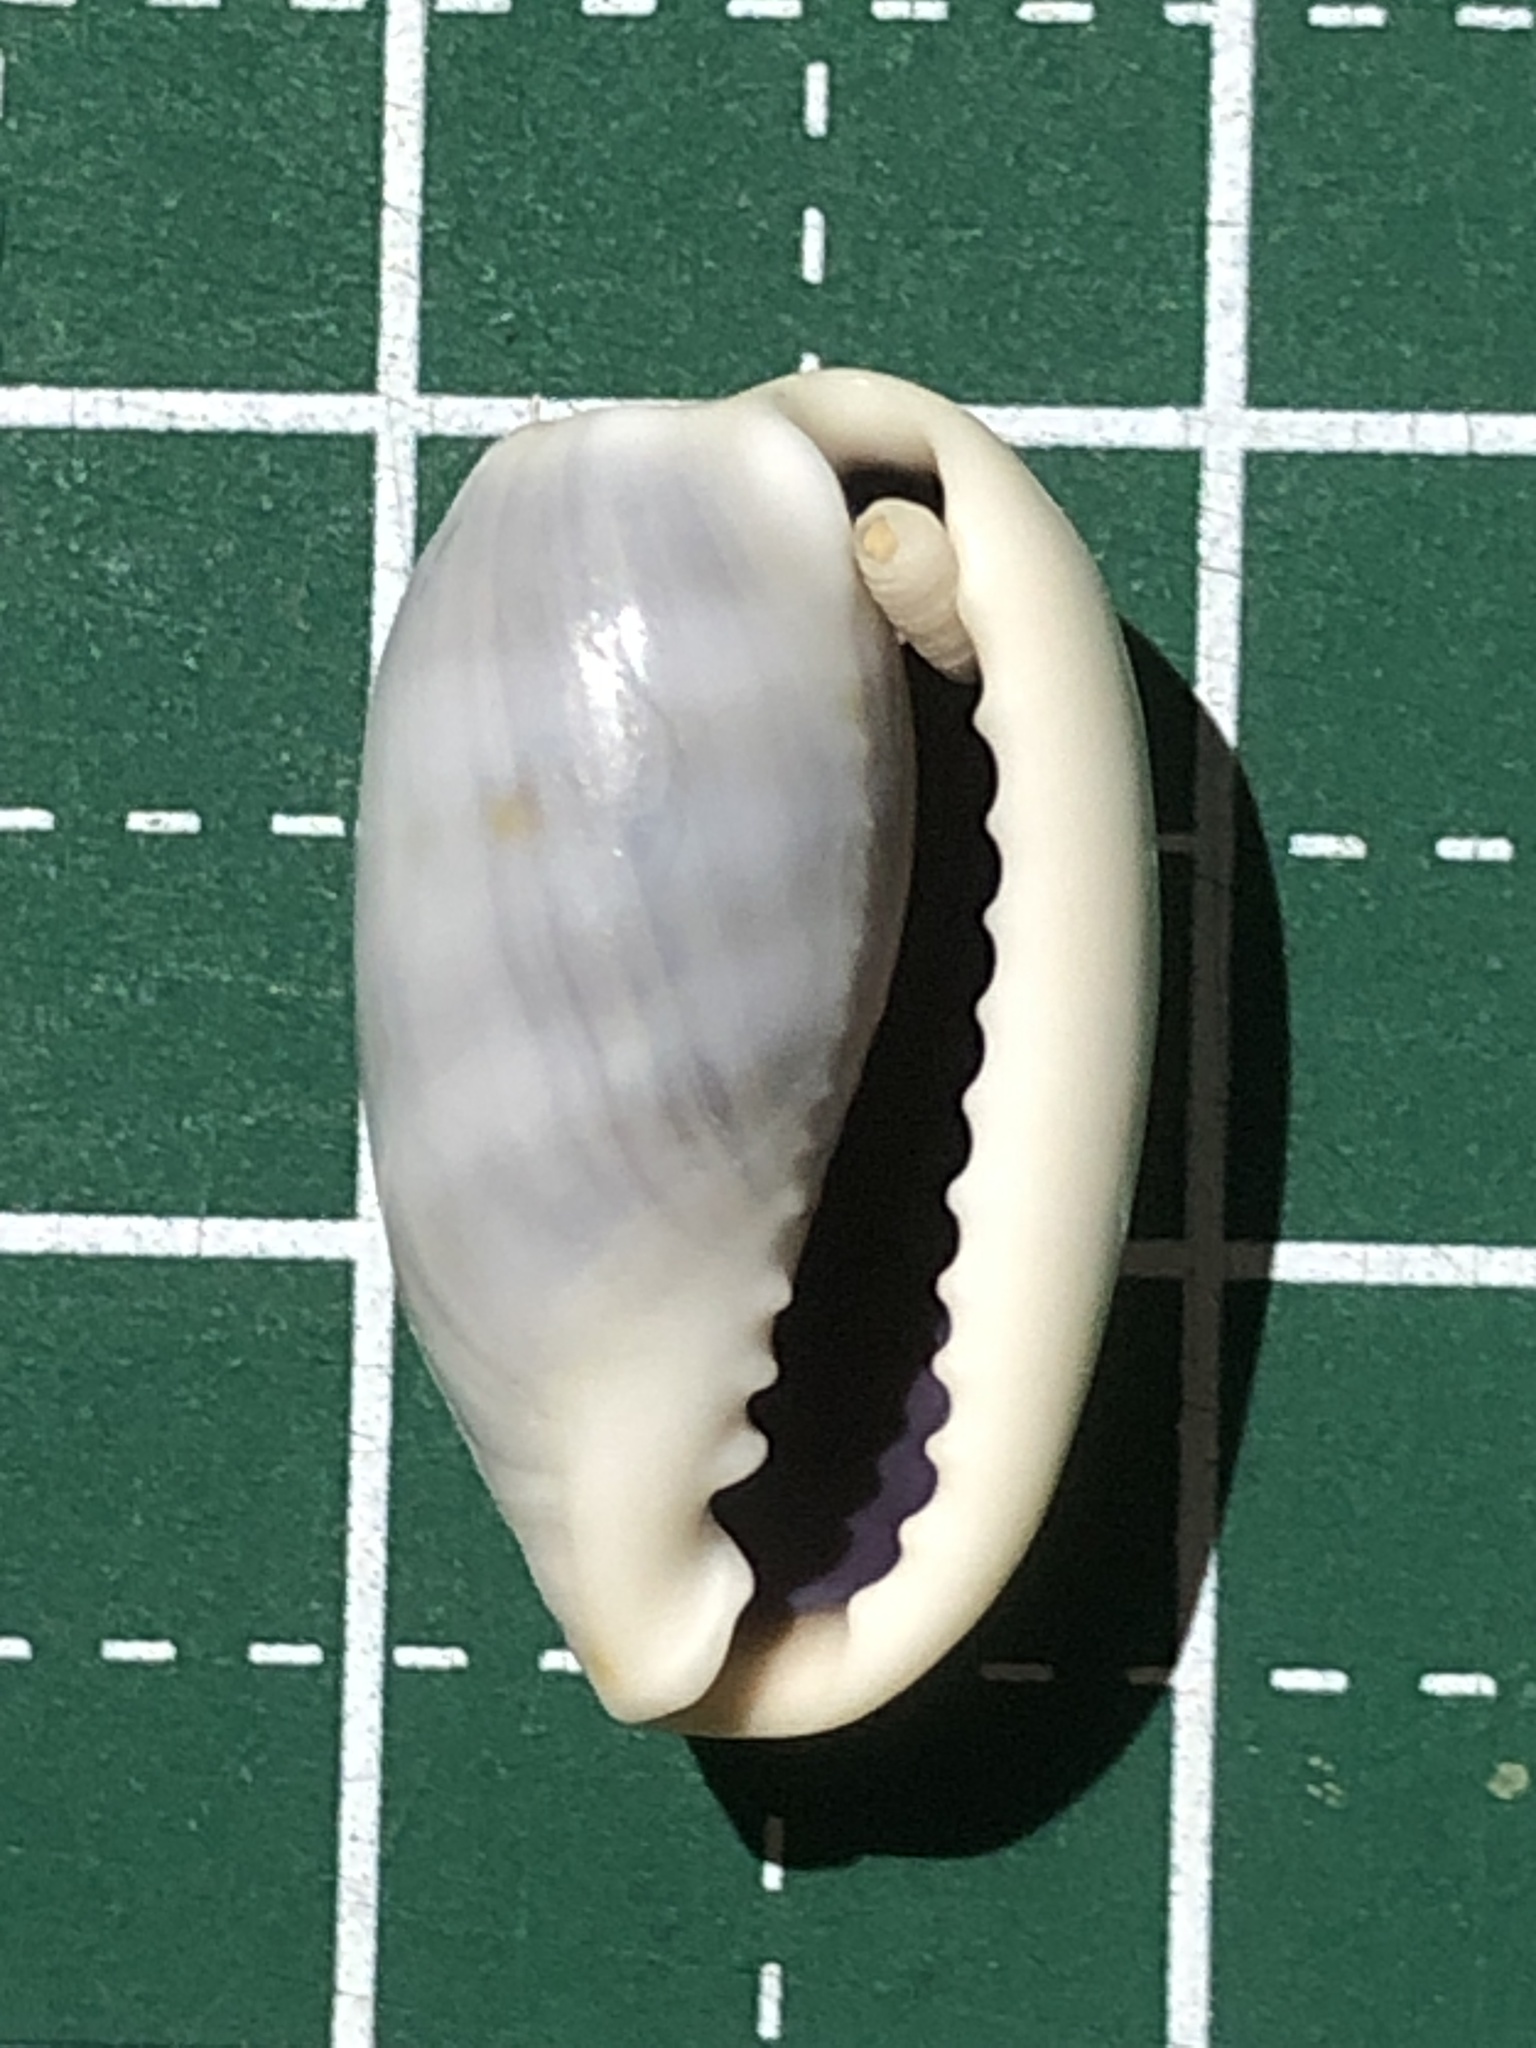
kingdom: Animalia
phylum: Mollusca
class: Gastropoda
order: Littorinimorpha
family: Cypraeidae
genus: Erronea
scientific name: Erronea errones
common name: Mistaken cowrie
